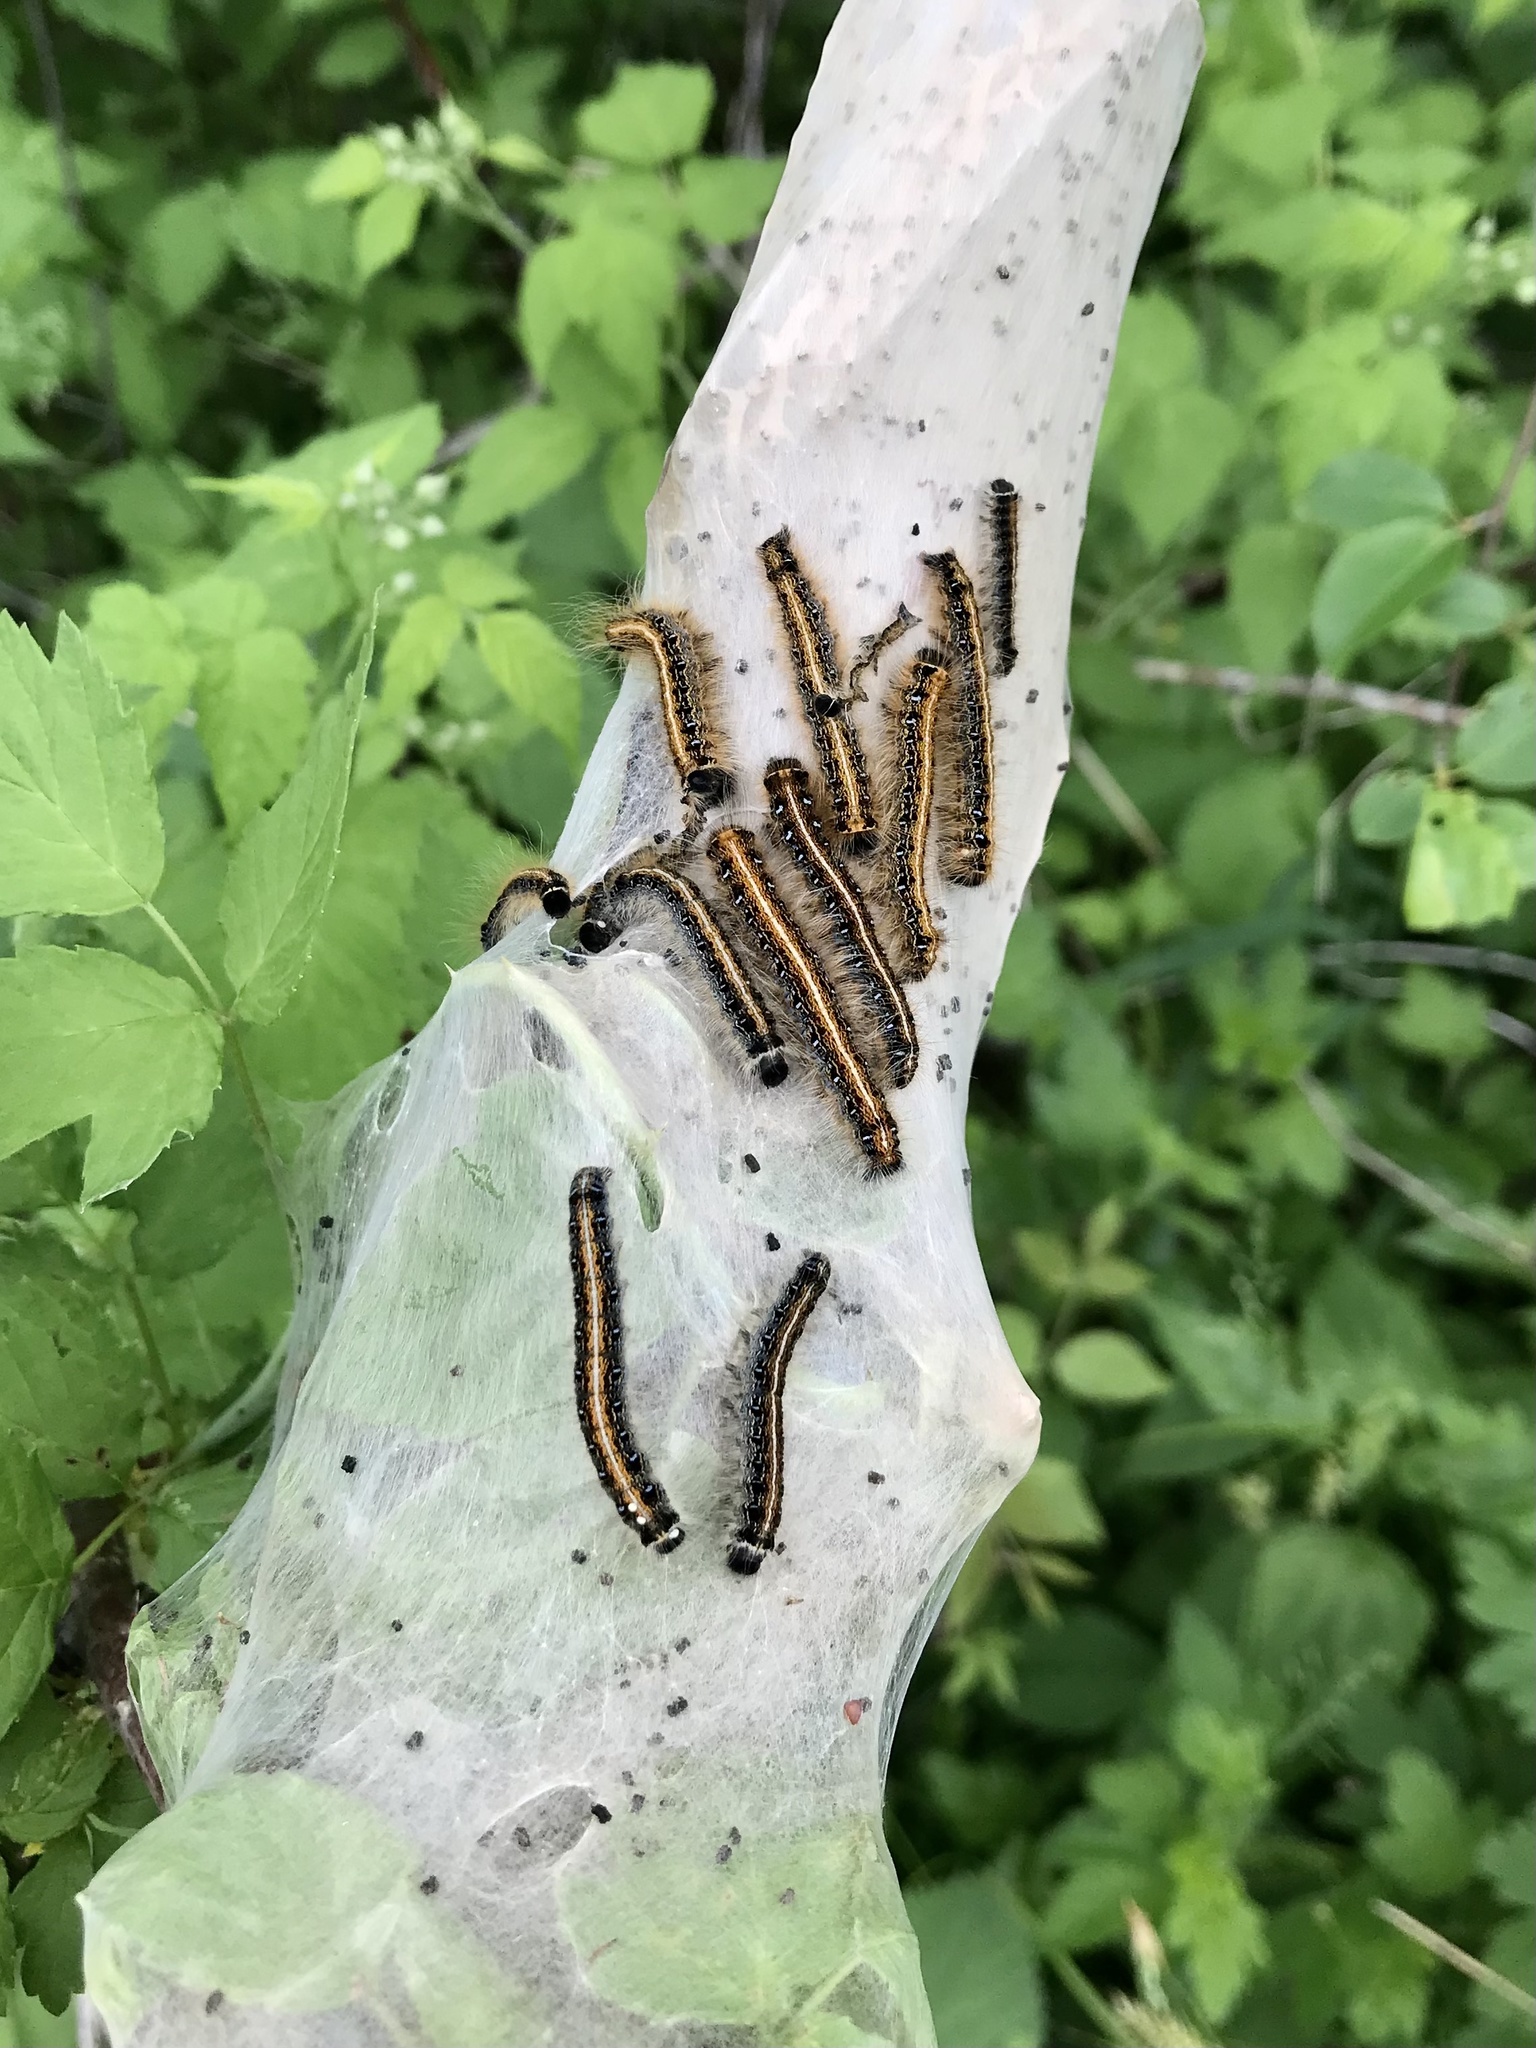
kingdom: Animalia
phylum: Arthropoda
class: Insecta
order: Lepidoptera
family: Lasiocampidae
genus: Malacosoma
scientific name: Malacosoma americana
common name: Eastern tent caterpillar moth
